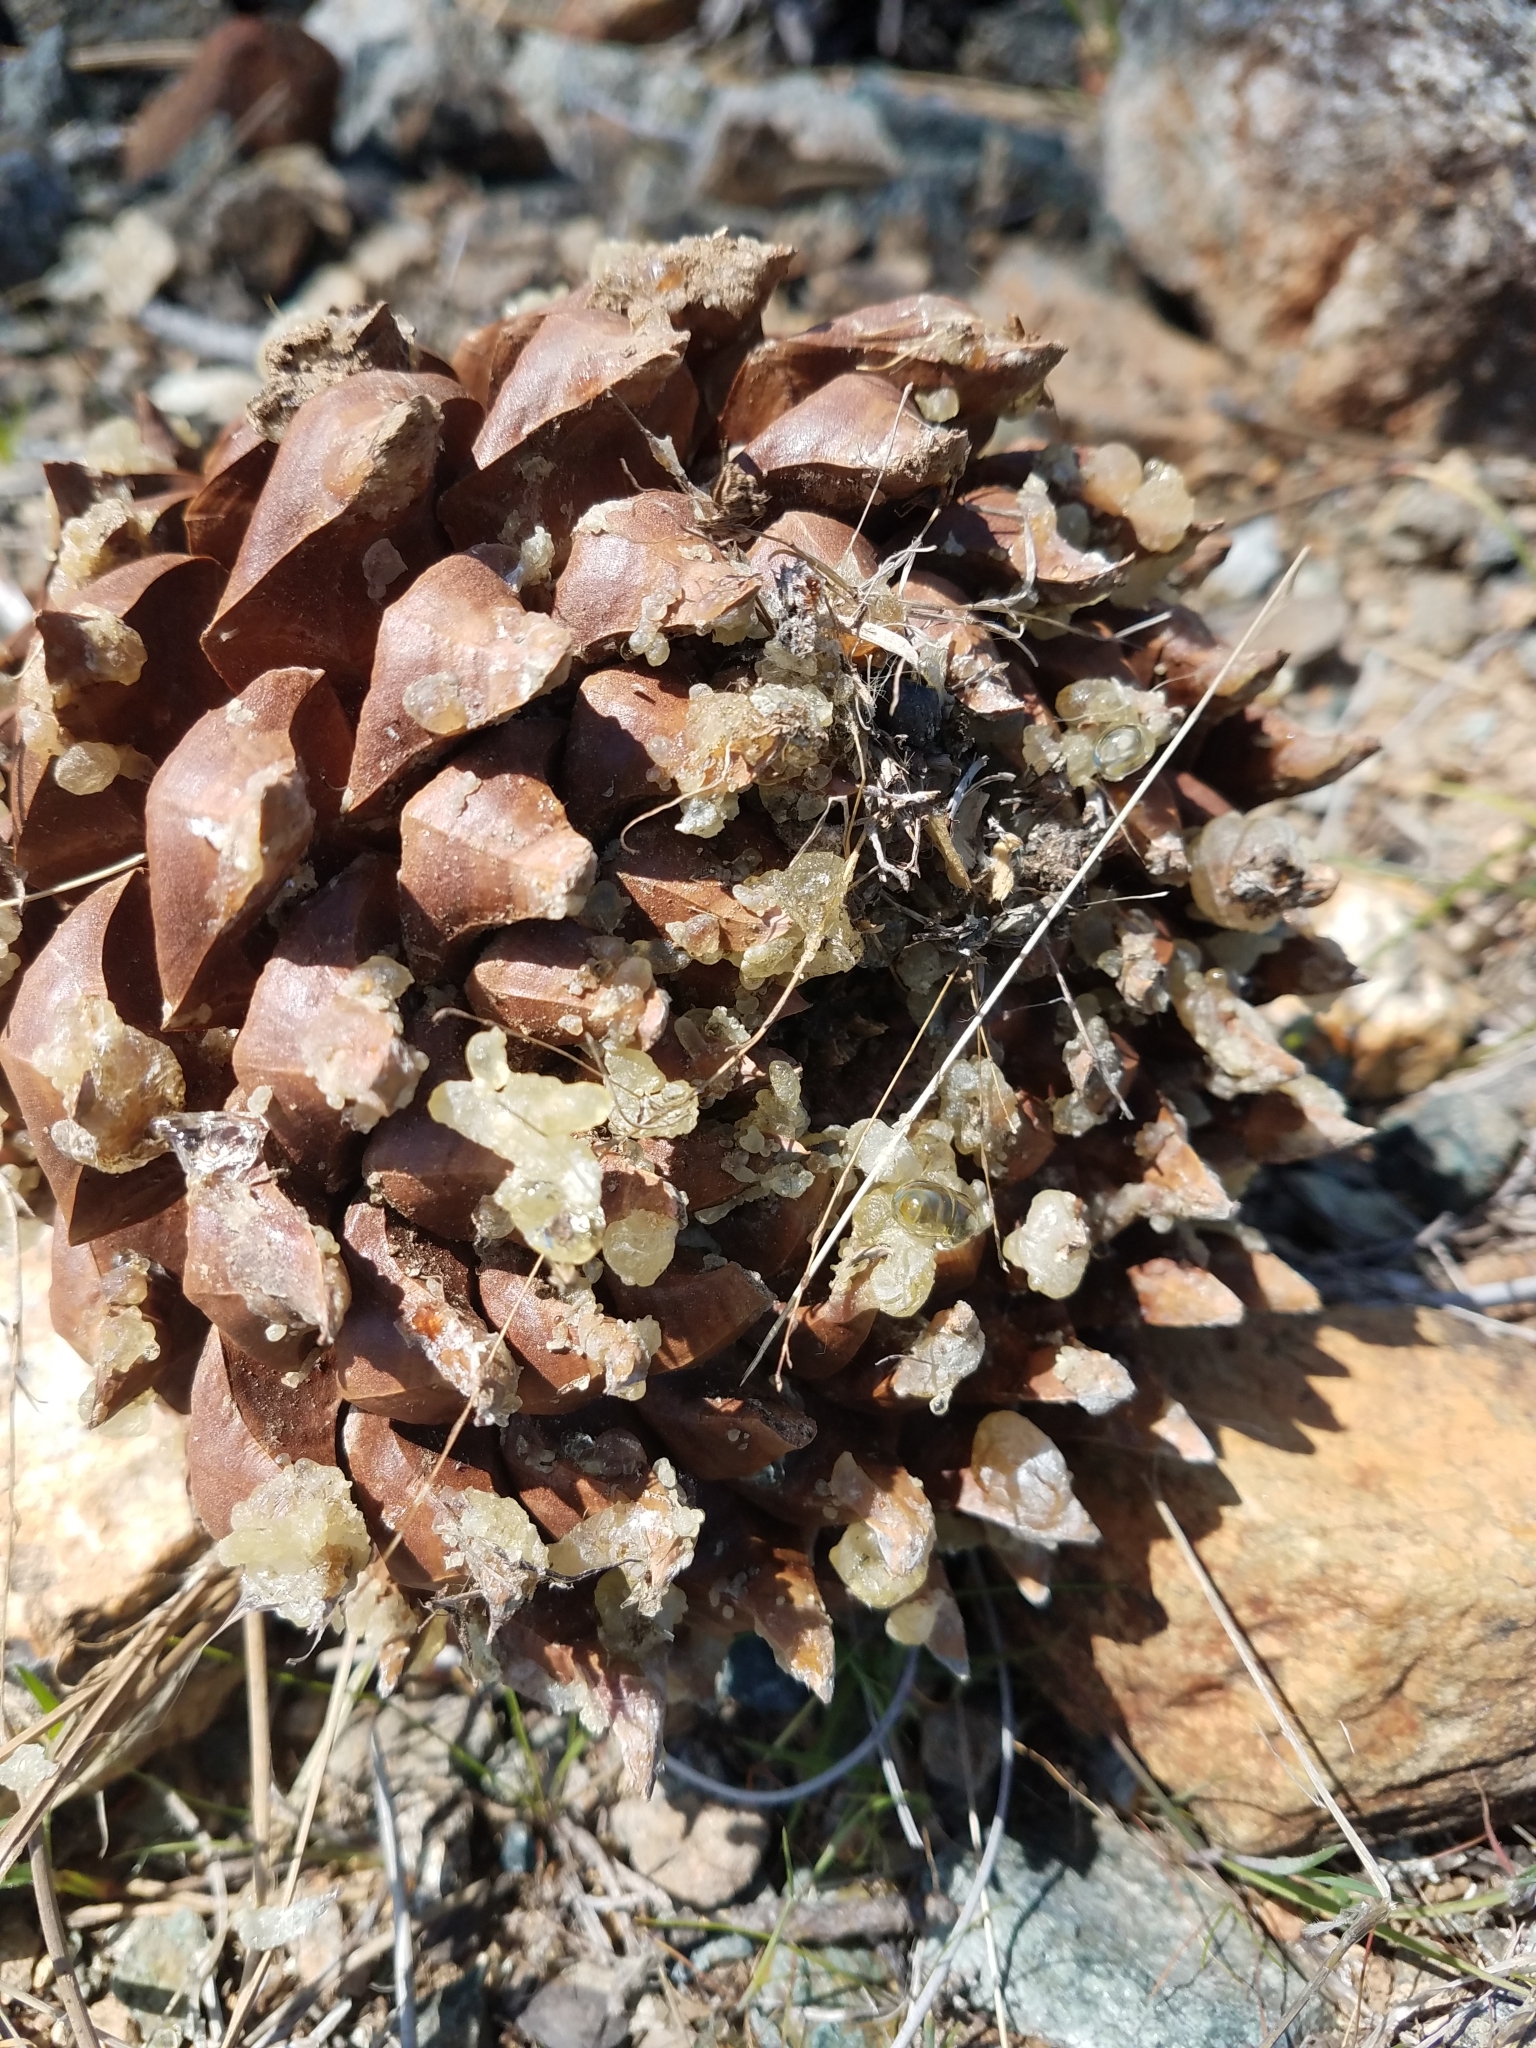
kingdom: Plantae
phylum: Tracheophyta
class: Pinopsida
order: Pinales
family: Pinaceae
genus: Pinus
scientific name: Pinus sabiniana
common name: Bull pine
